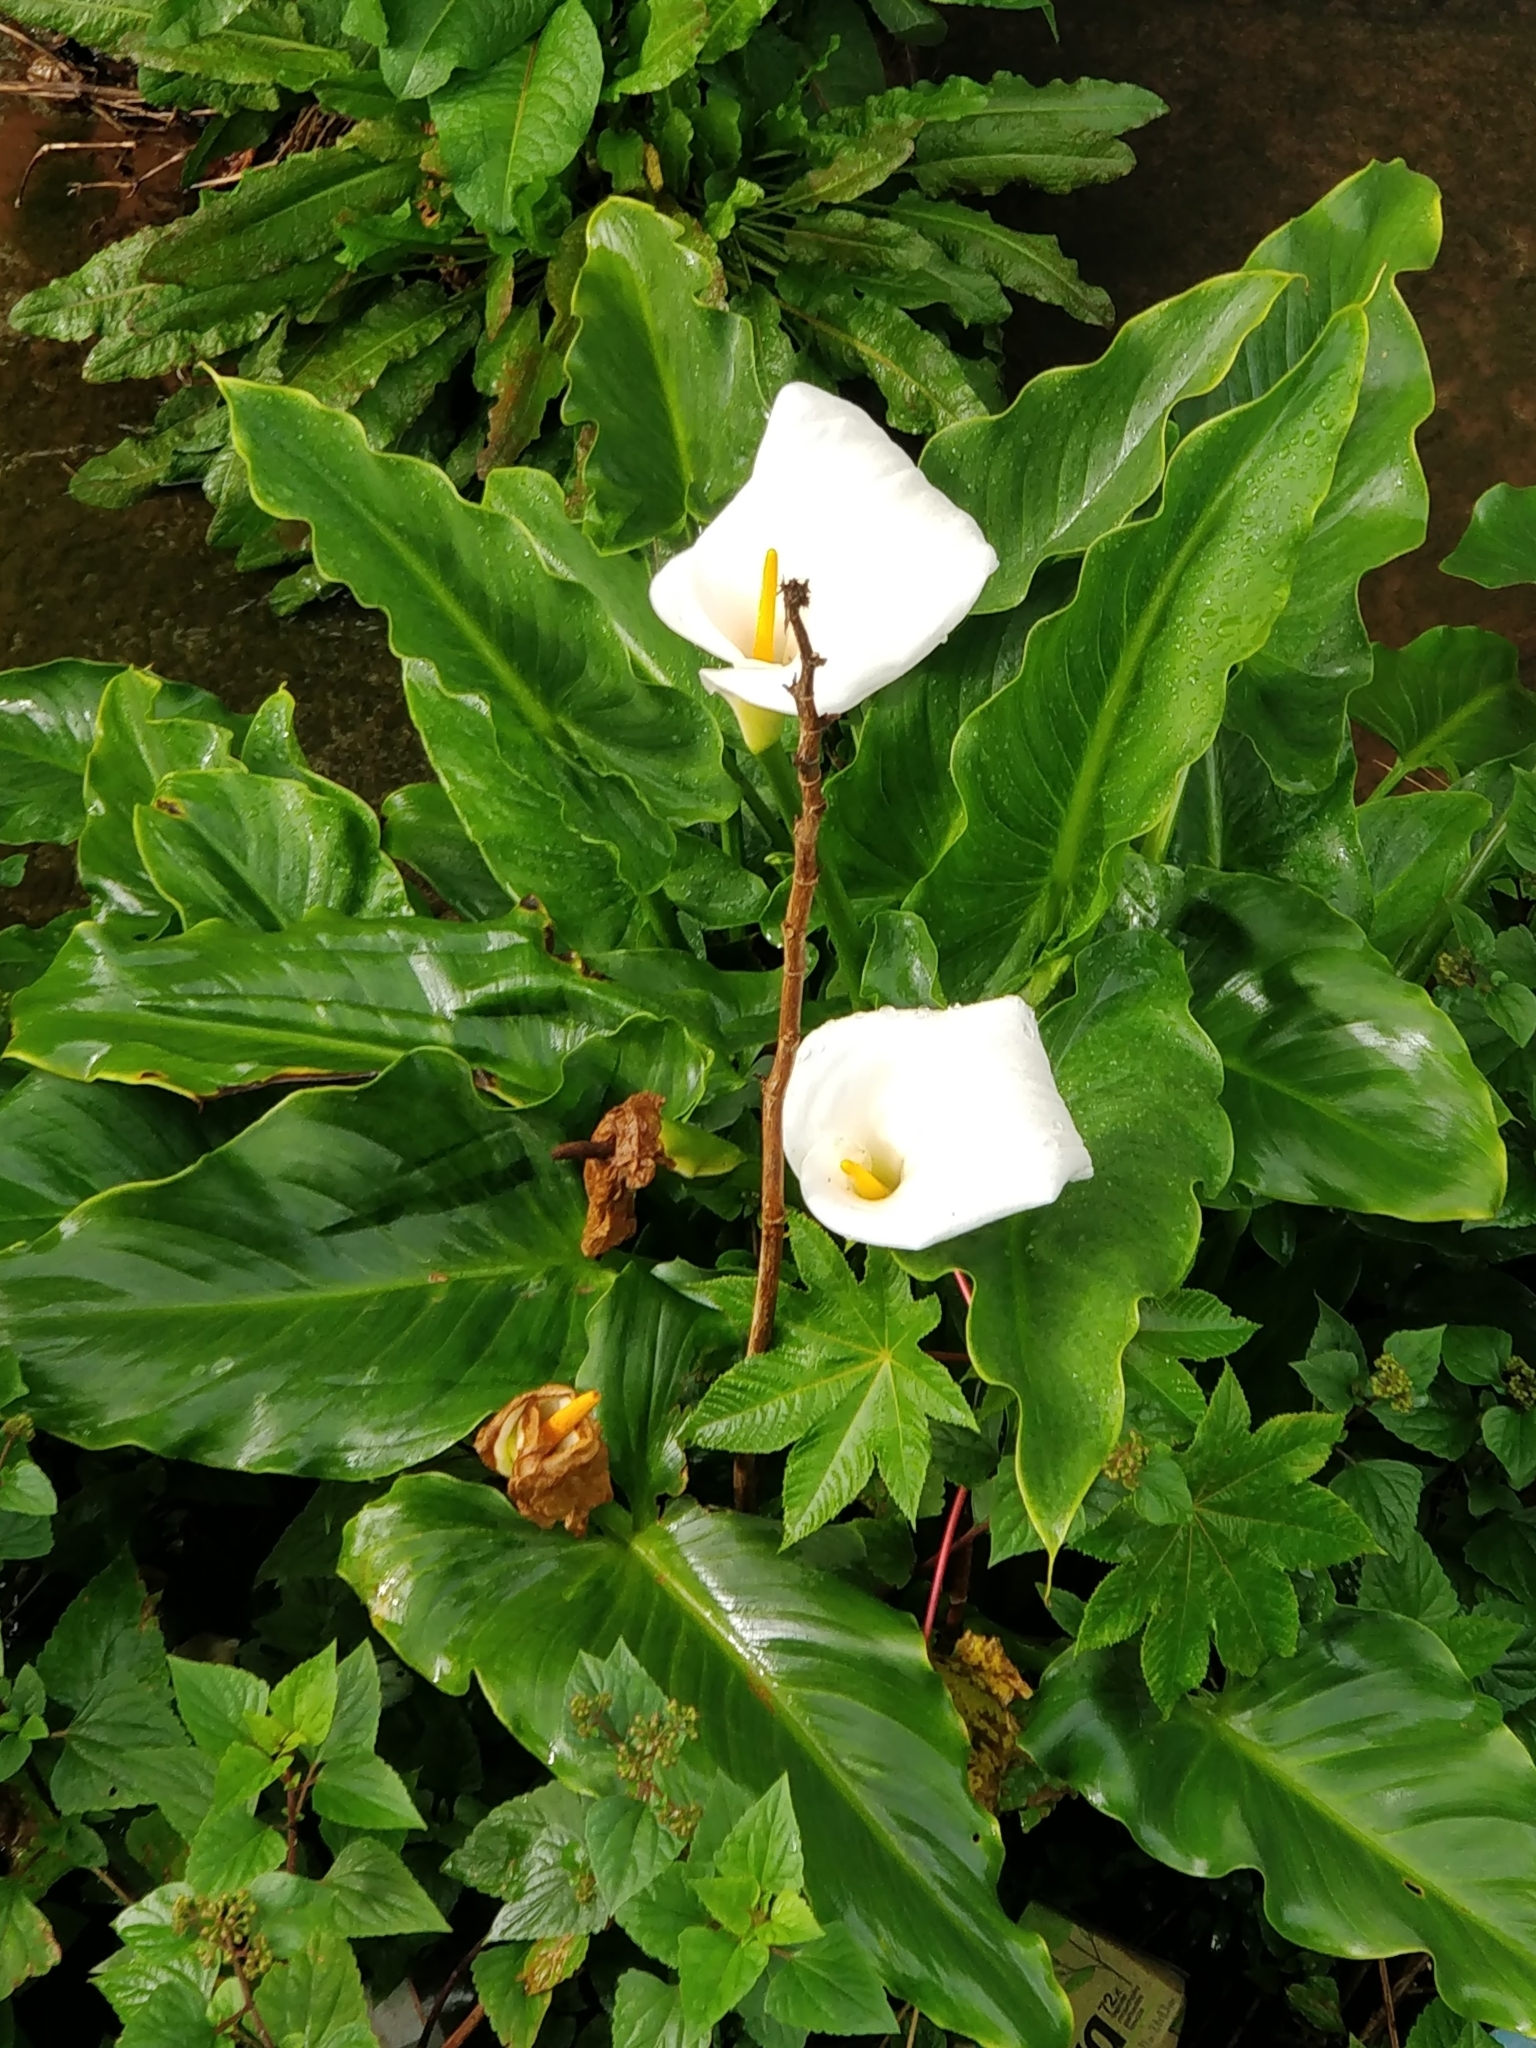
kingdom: Plantae
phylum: Tracheophyta
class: Liliopsida
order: Alismatales
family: Araceae
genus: Zantedeschia
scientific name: Zantedeschia aethiopica
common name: Altar-lily
